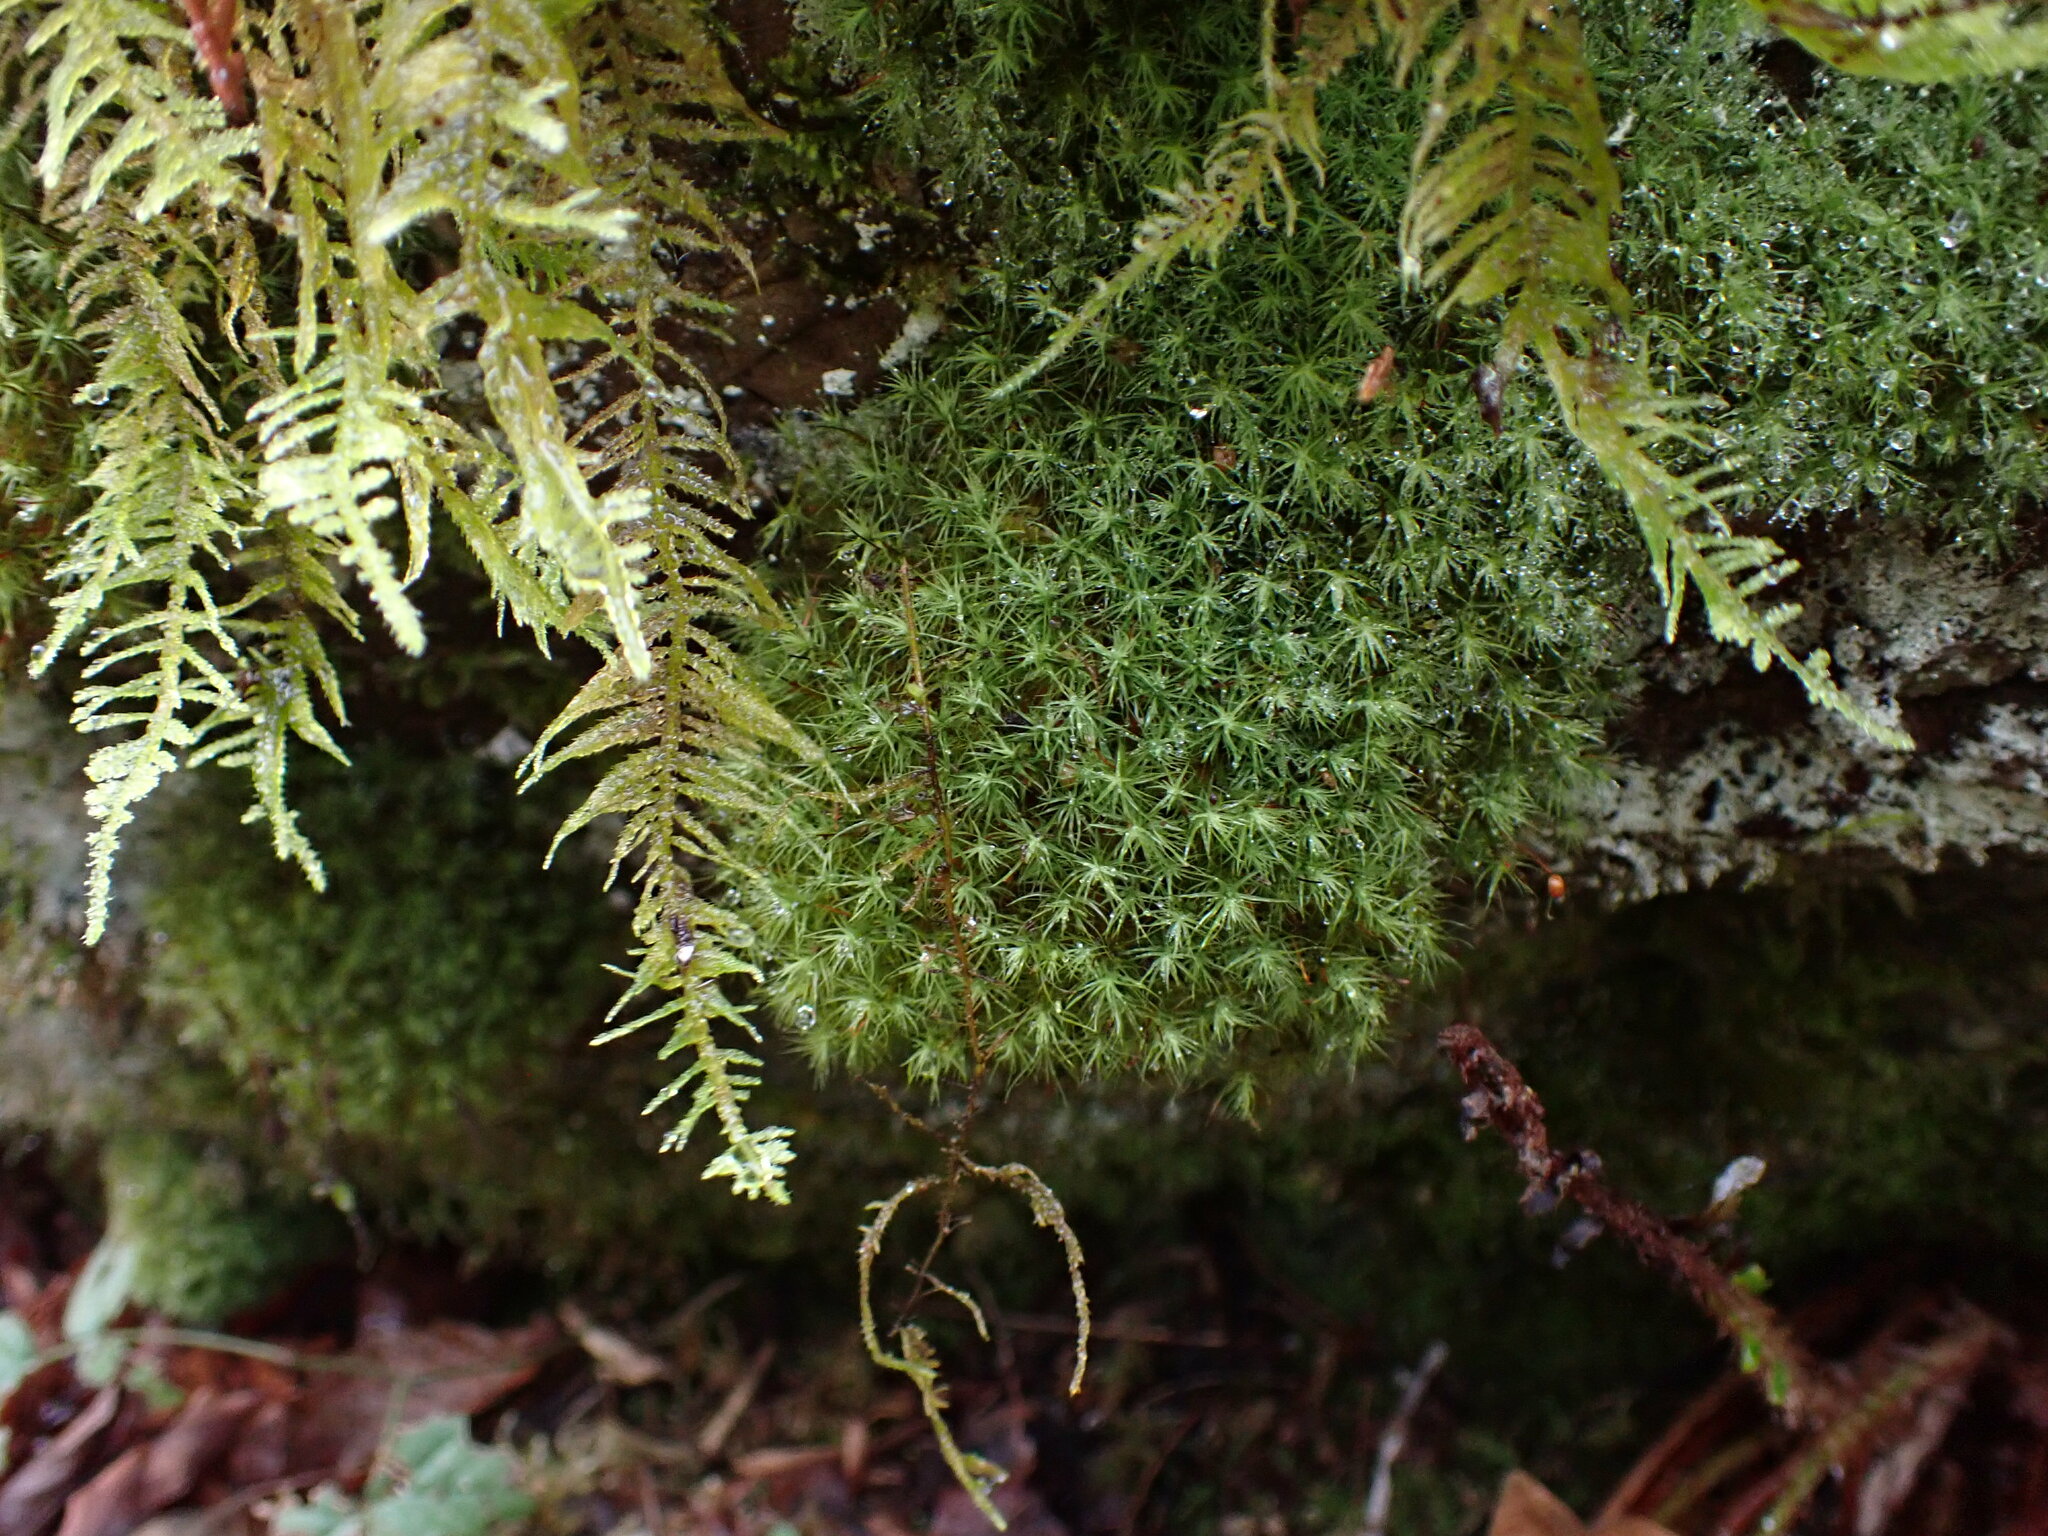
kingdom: Plantae
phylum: Bryophyta
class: Bryopsida
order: Bartramiales
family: Bartramiaceae
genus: Bartramia
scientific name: Bartramia ithyphylla
